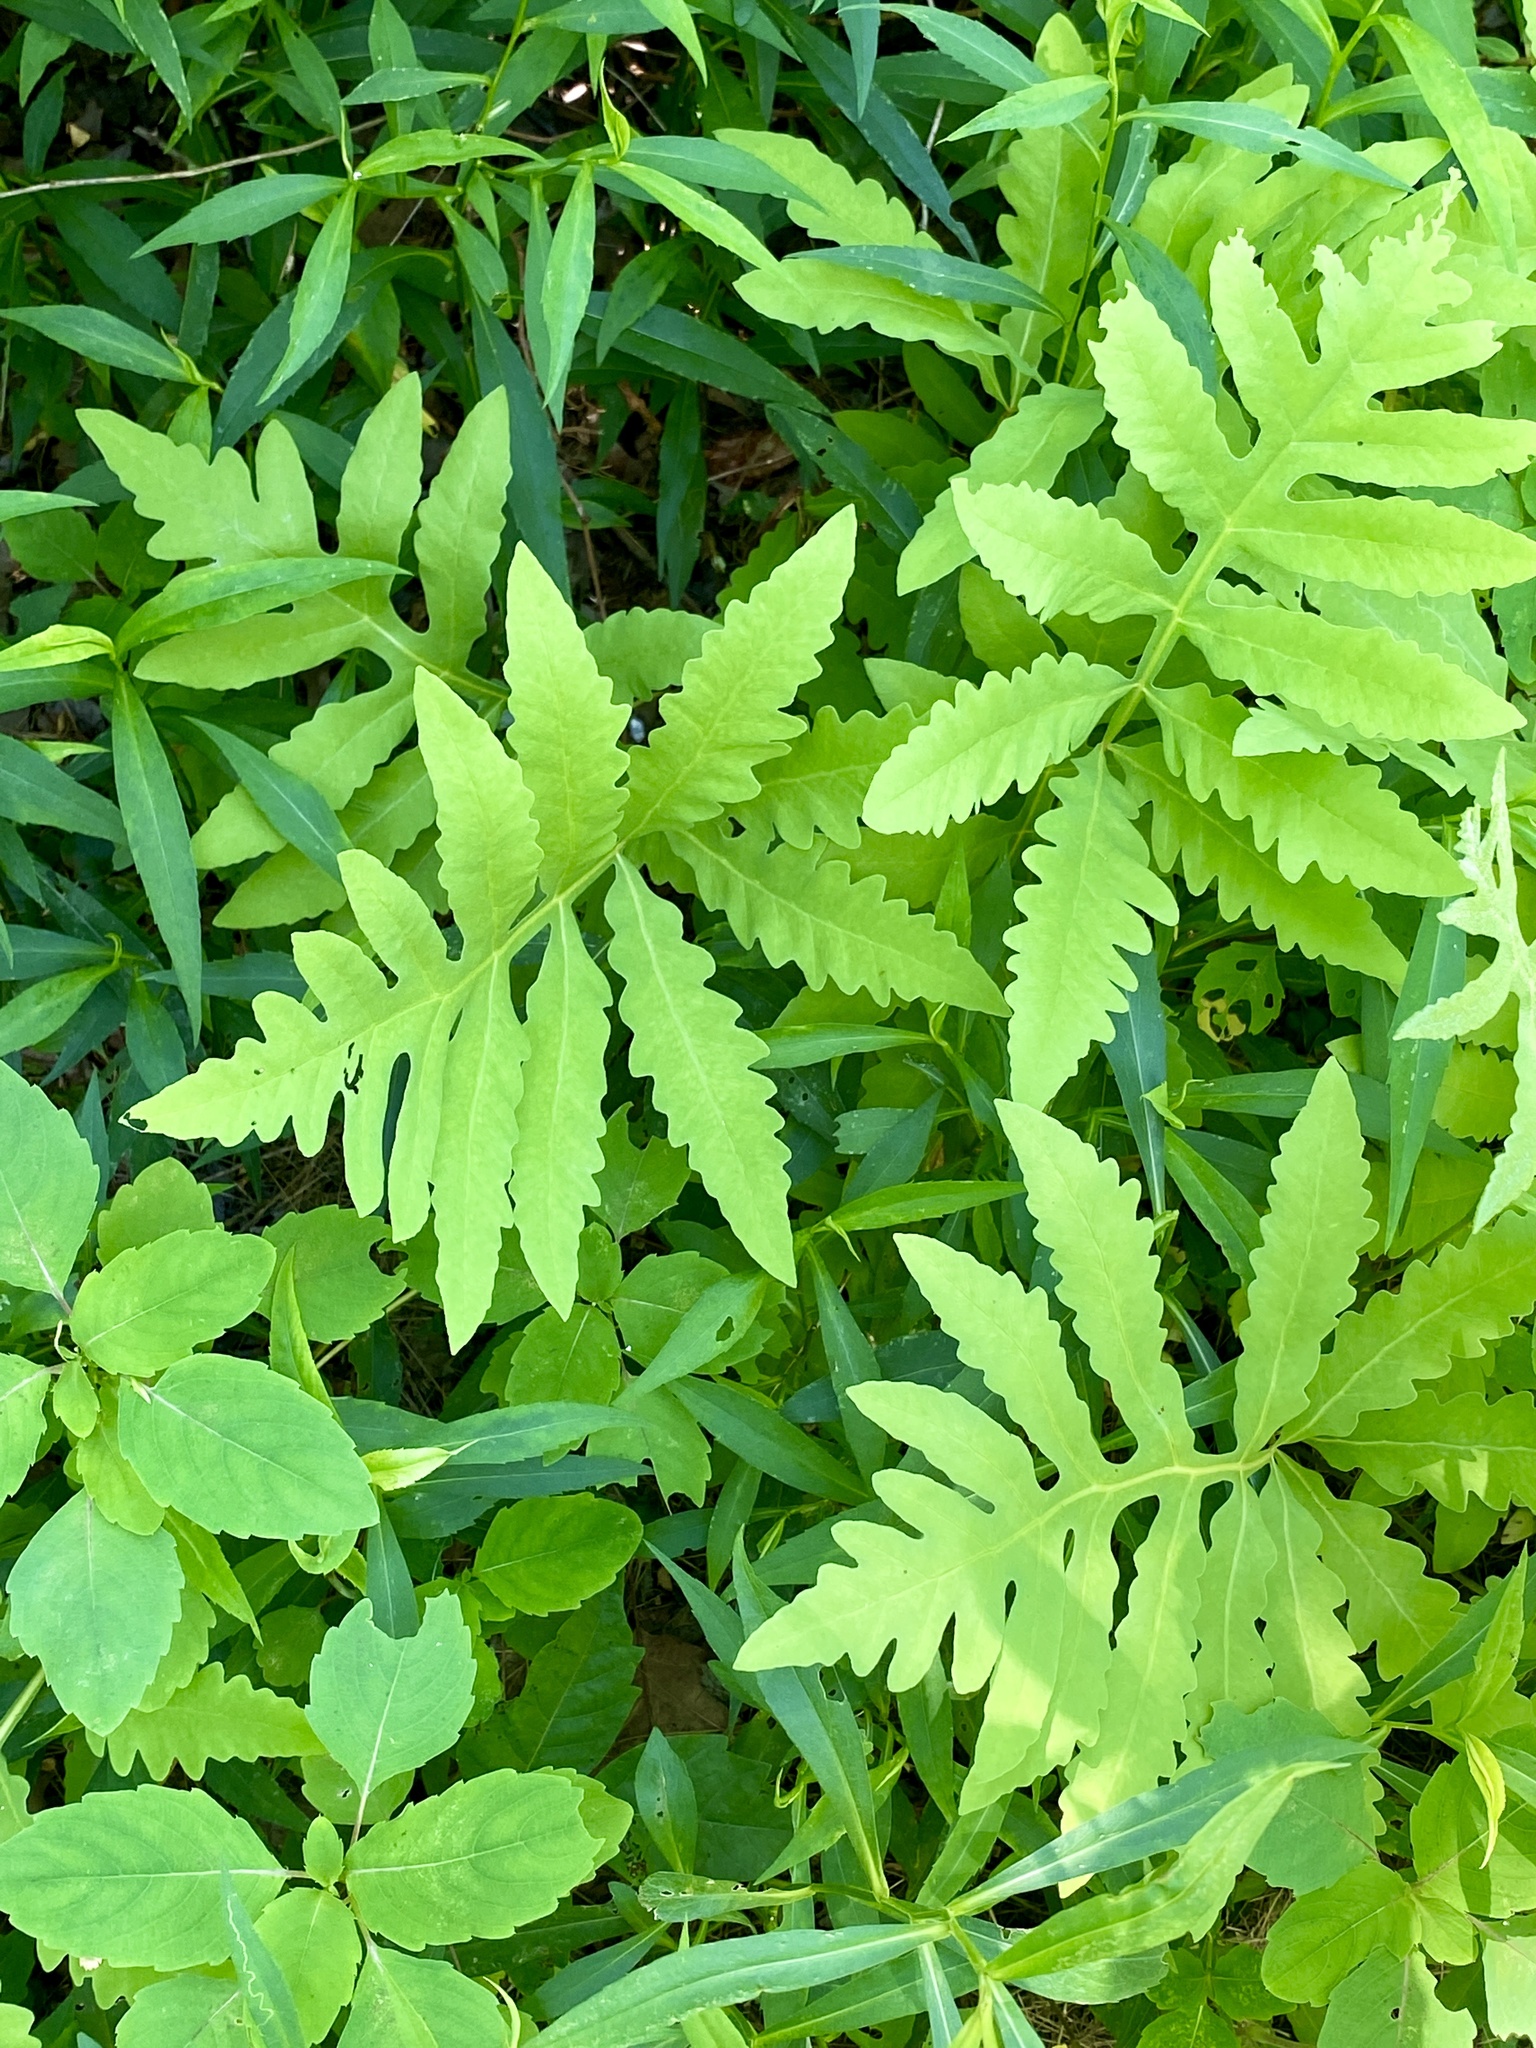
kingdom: Plantae
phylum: Tracheophyta
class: Polypodiopsida
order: Polypodiales
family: Onocleaceae
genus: Onoclea
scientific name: Onoclea sensibilis
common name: Sensitive fern
